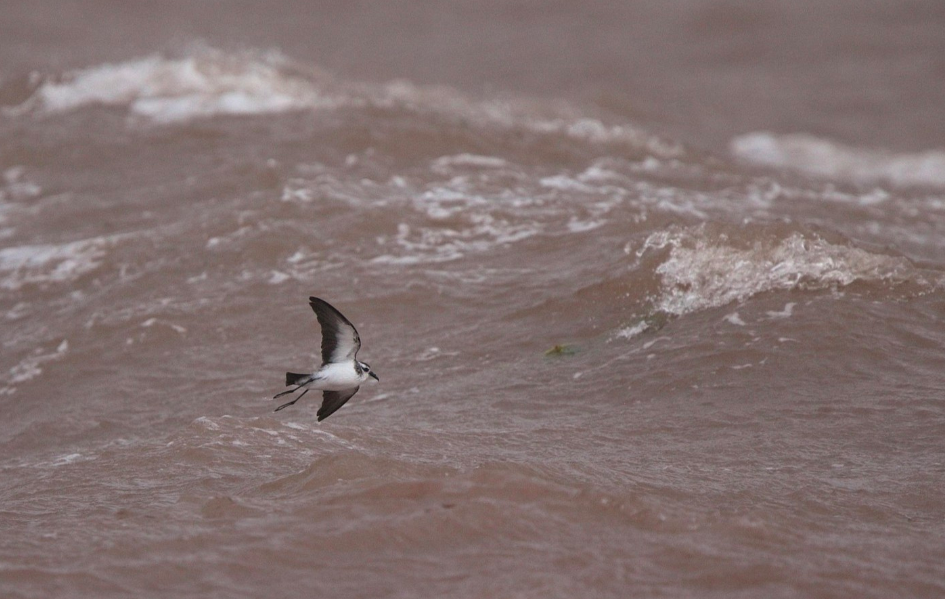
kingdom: Animalia
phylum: Chordata
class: Aves
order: Procellariiformes
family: Hydrobatidae
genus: Pelagodroma
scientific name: Pelagodroma marina
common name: White-faced storm-petrel
